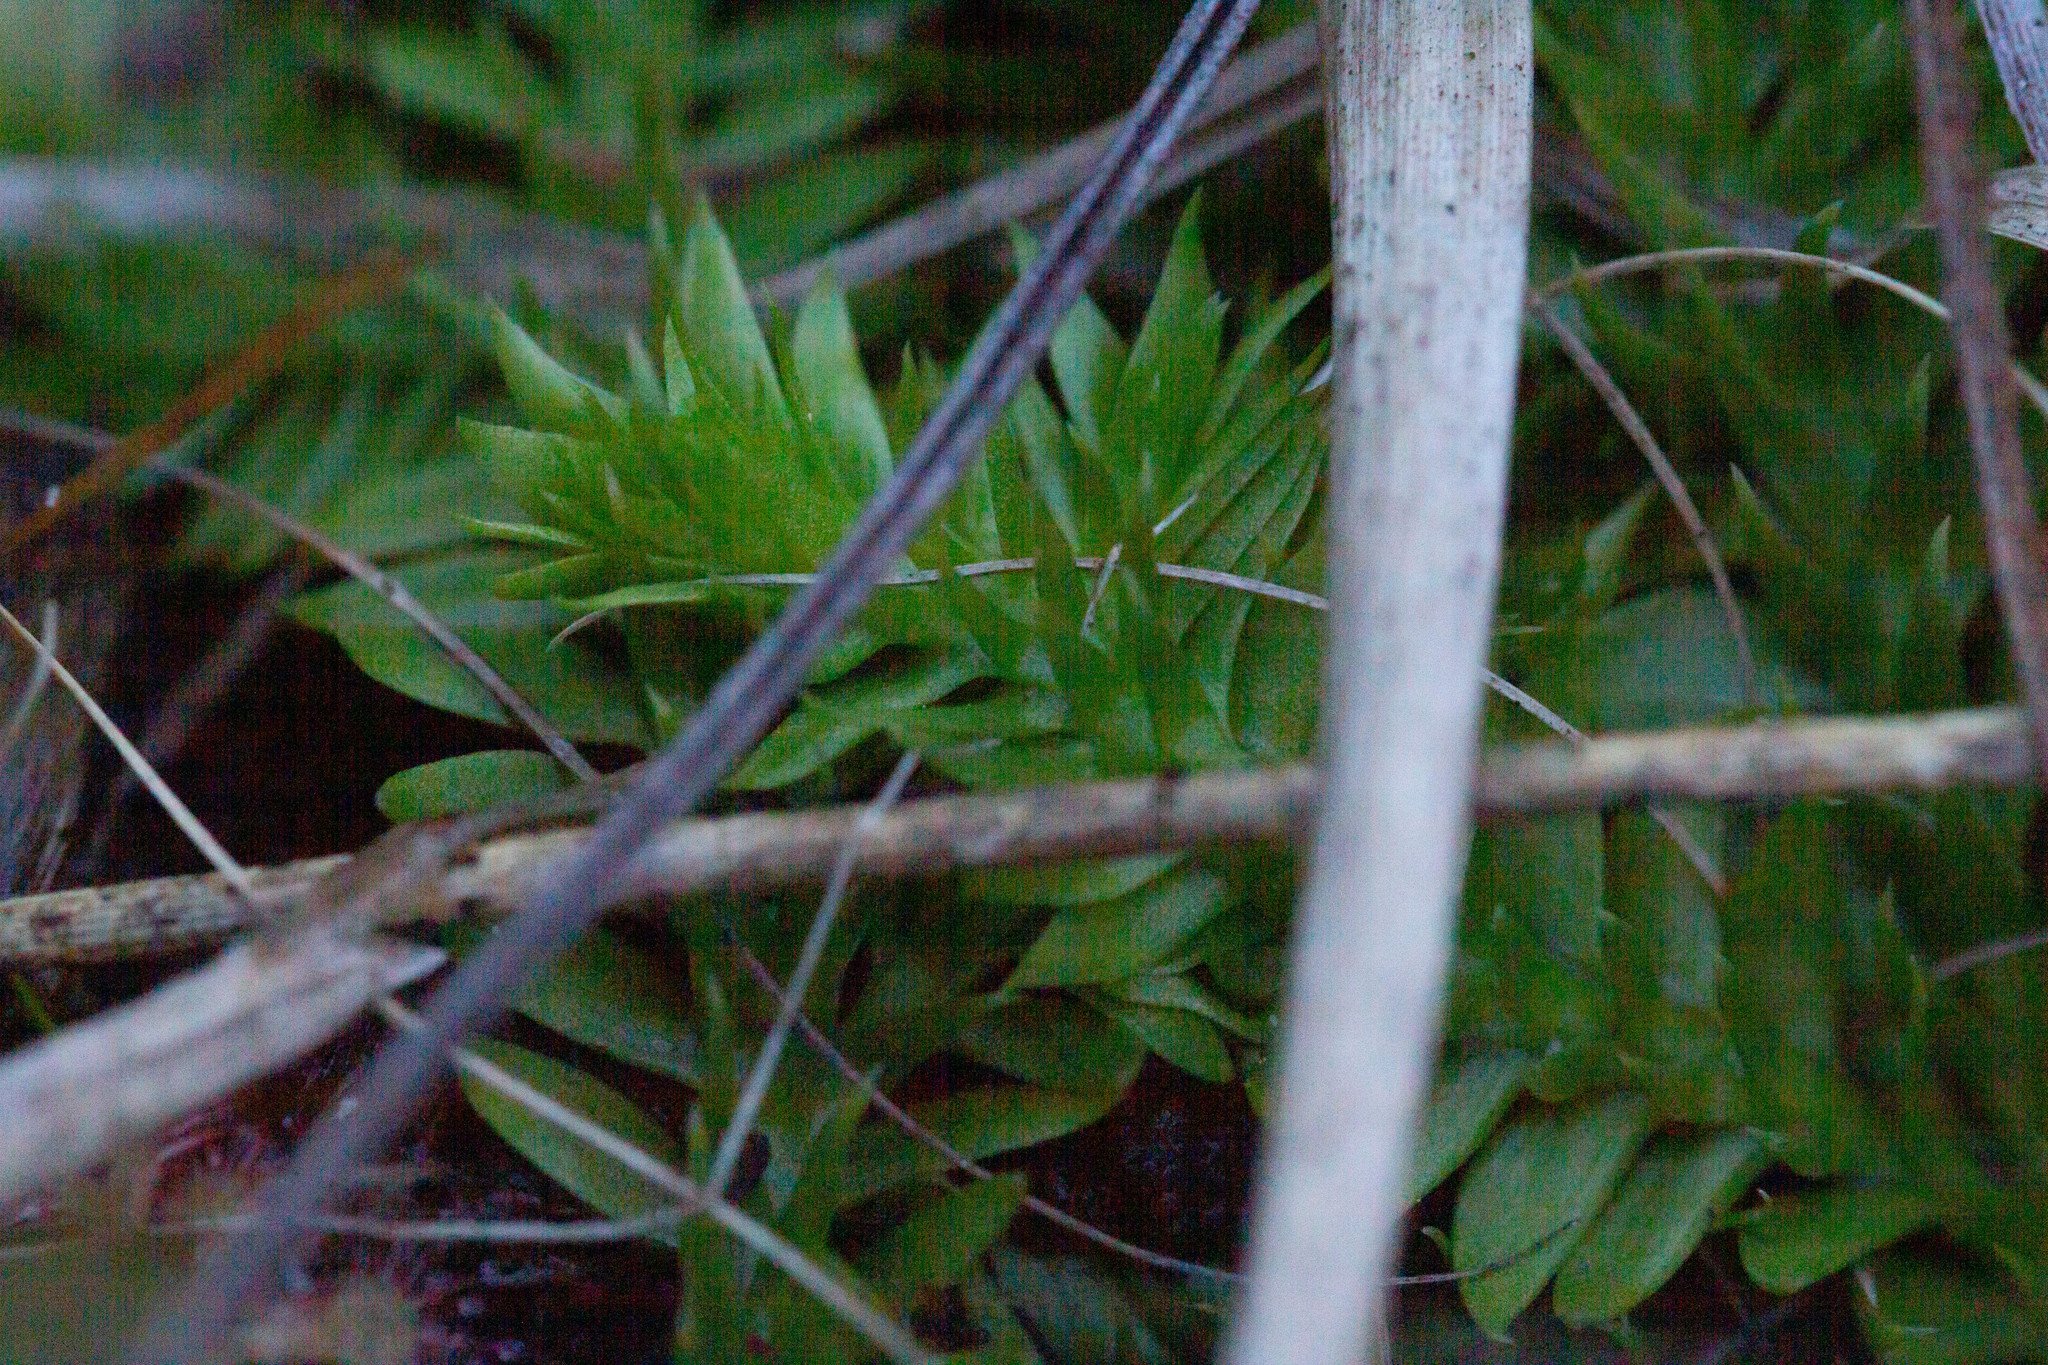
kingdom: Plantae
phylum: Tracheophyta
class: Lycopodiopsida
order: Lycopodiales
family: Lycopodiaceae
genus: Pseudolycopodiella
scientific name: Pseudolycopodiella caroliniana
